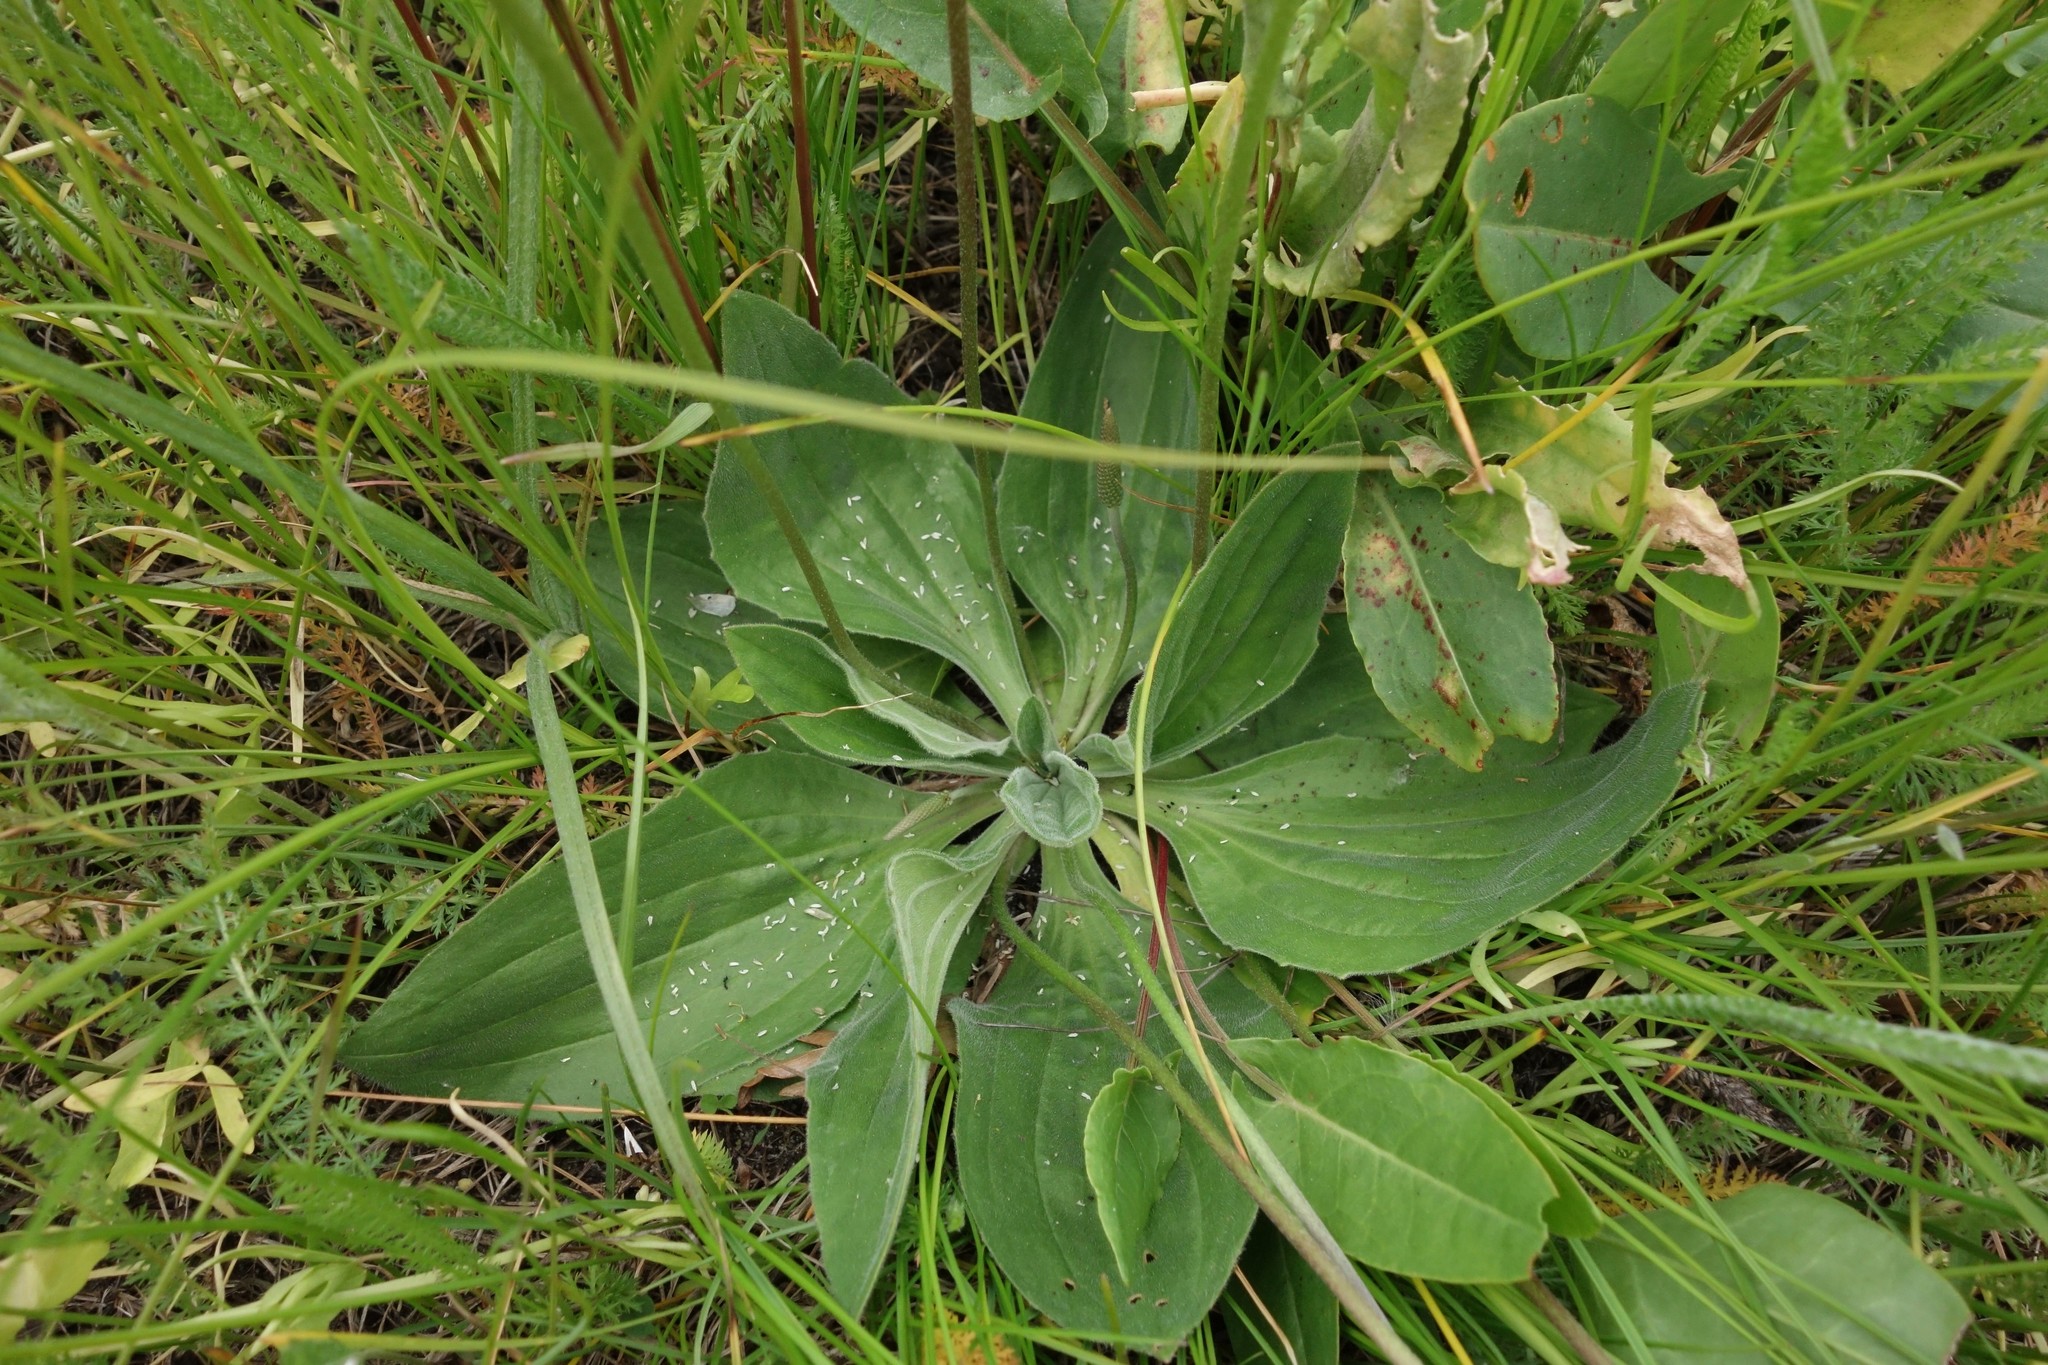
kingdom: Plantae
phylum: Tracheophyta
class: Magnoliopsida
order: Lamiales
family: Plantaginaceae
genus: Plantago
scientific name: Plantago media
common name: Hoary plantain
